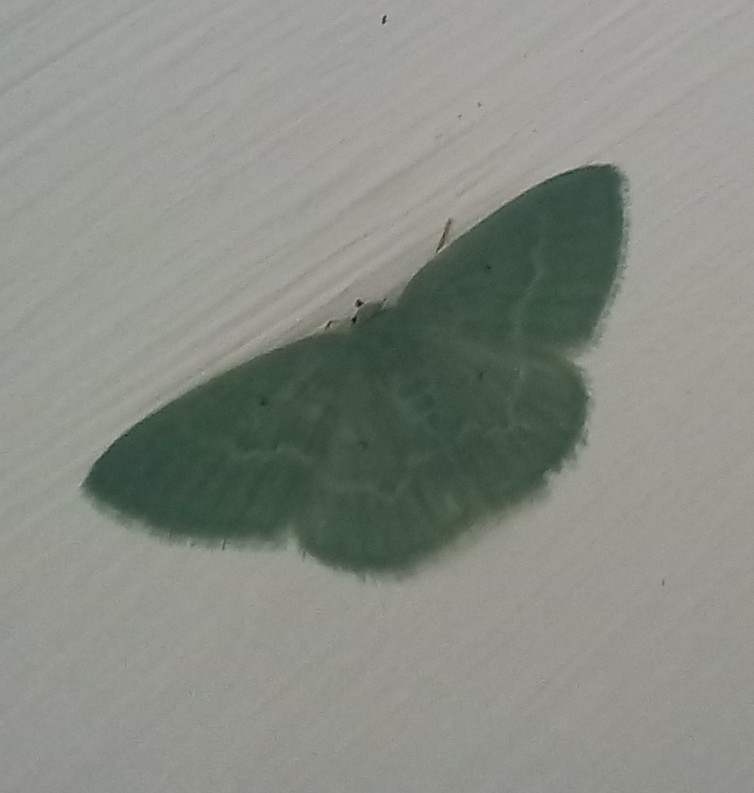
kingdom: Animalia
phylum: Arthropoda
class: Insecta
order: Lepidoptera
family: Geometridae
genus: Chlorissa
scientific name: Chlorissa albistrigulata
